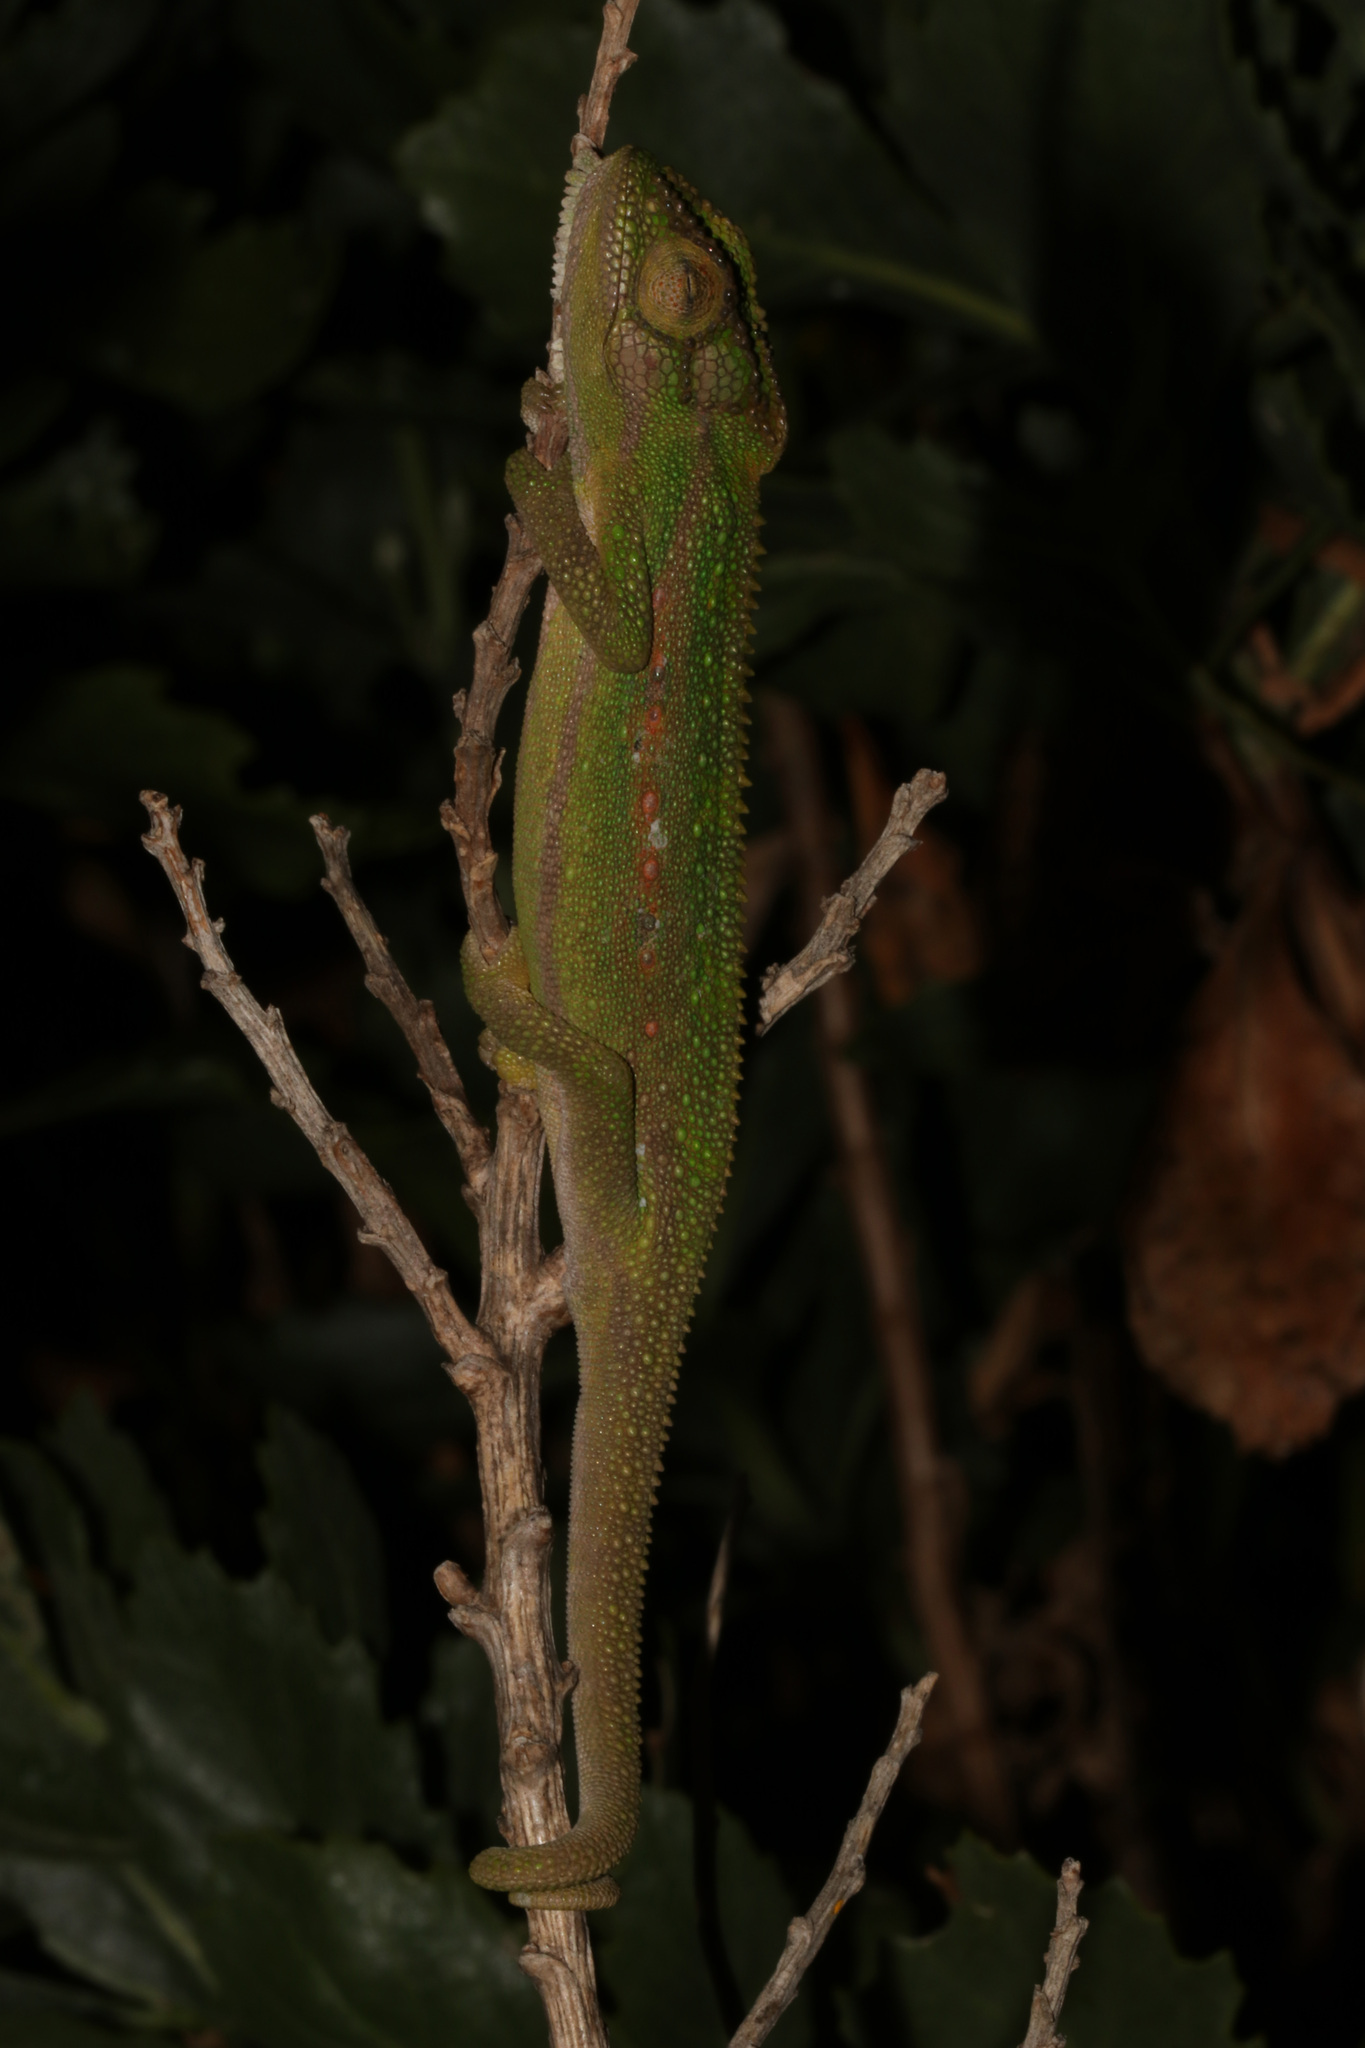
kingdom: Animalia
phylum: Chordata
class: Squamata
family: Chamaeleonidae
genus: Bradypodion
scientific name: Bradypodion pumilum
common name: Cape dwarf chameleon
